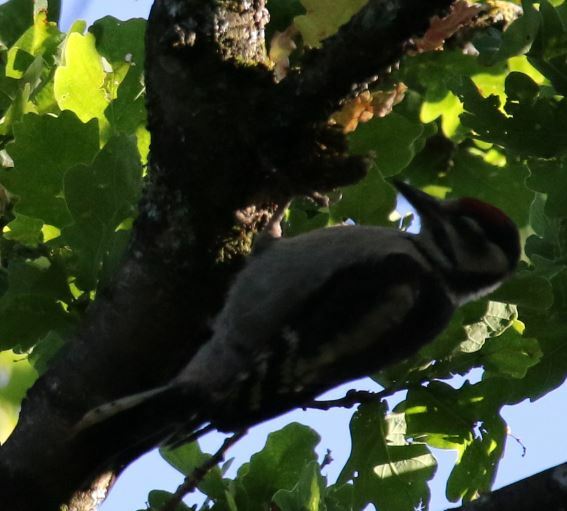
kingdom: Animalia
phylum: Chordata
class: Aves
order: Piciformes
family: Picidae
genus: Dendrocopos
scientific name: Dendrocopos major
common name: Great spotted woodpecker
